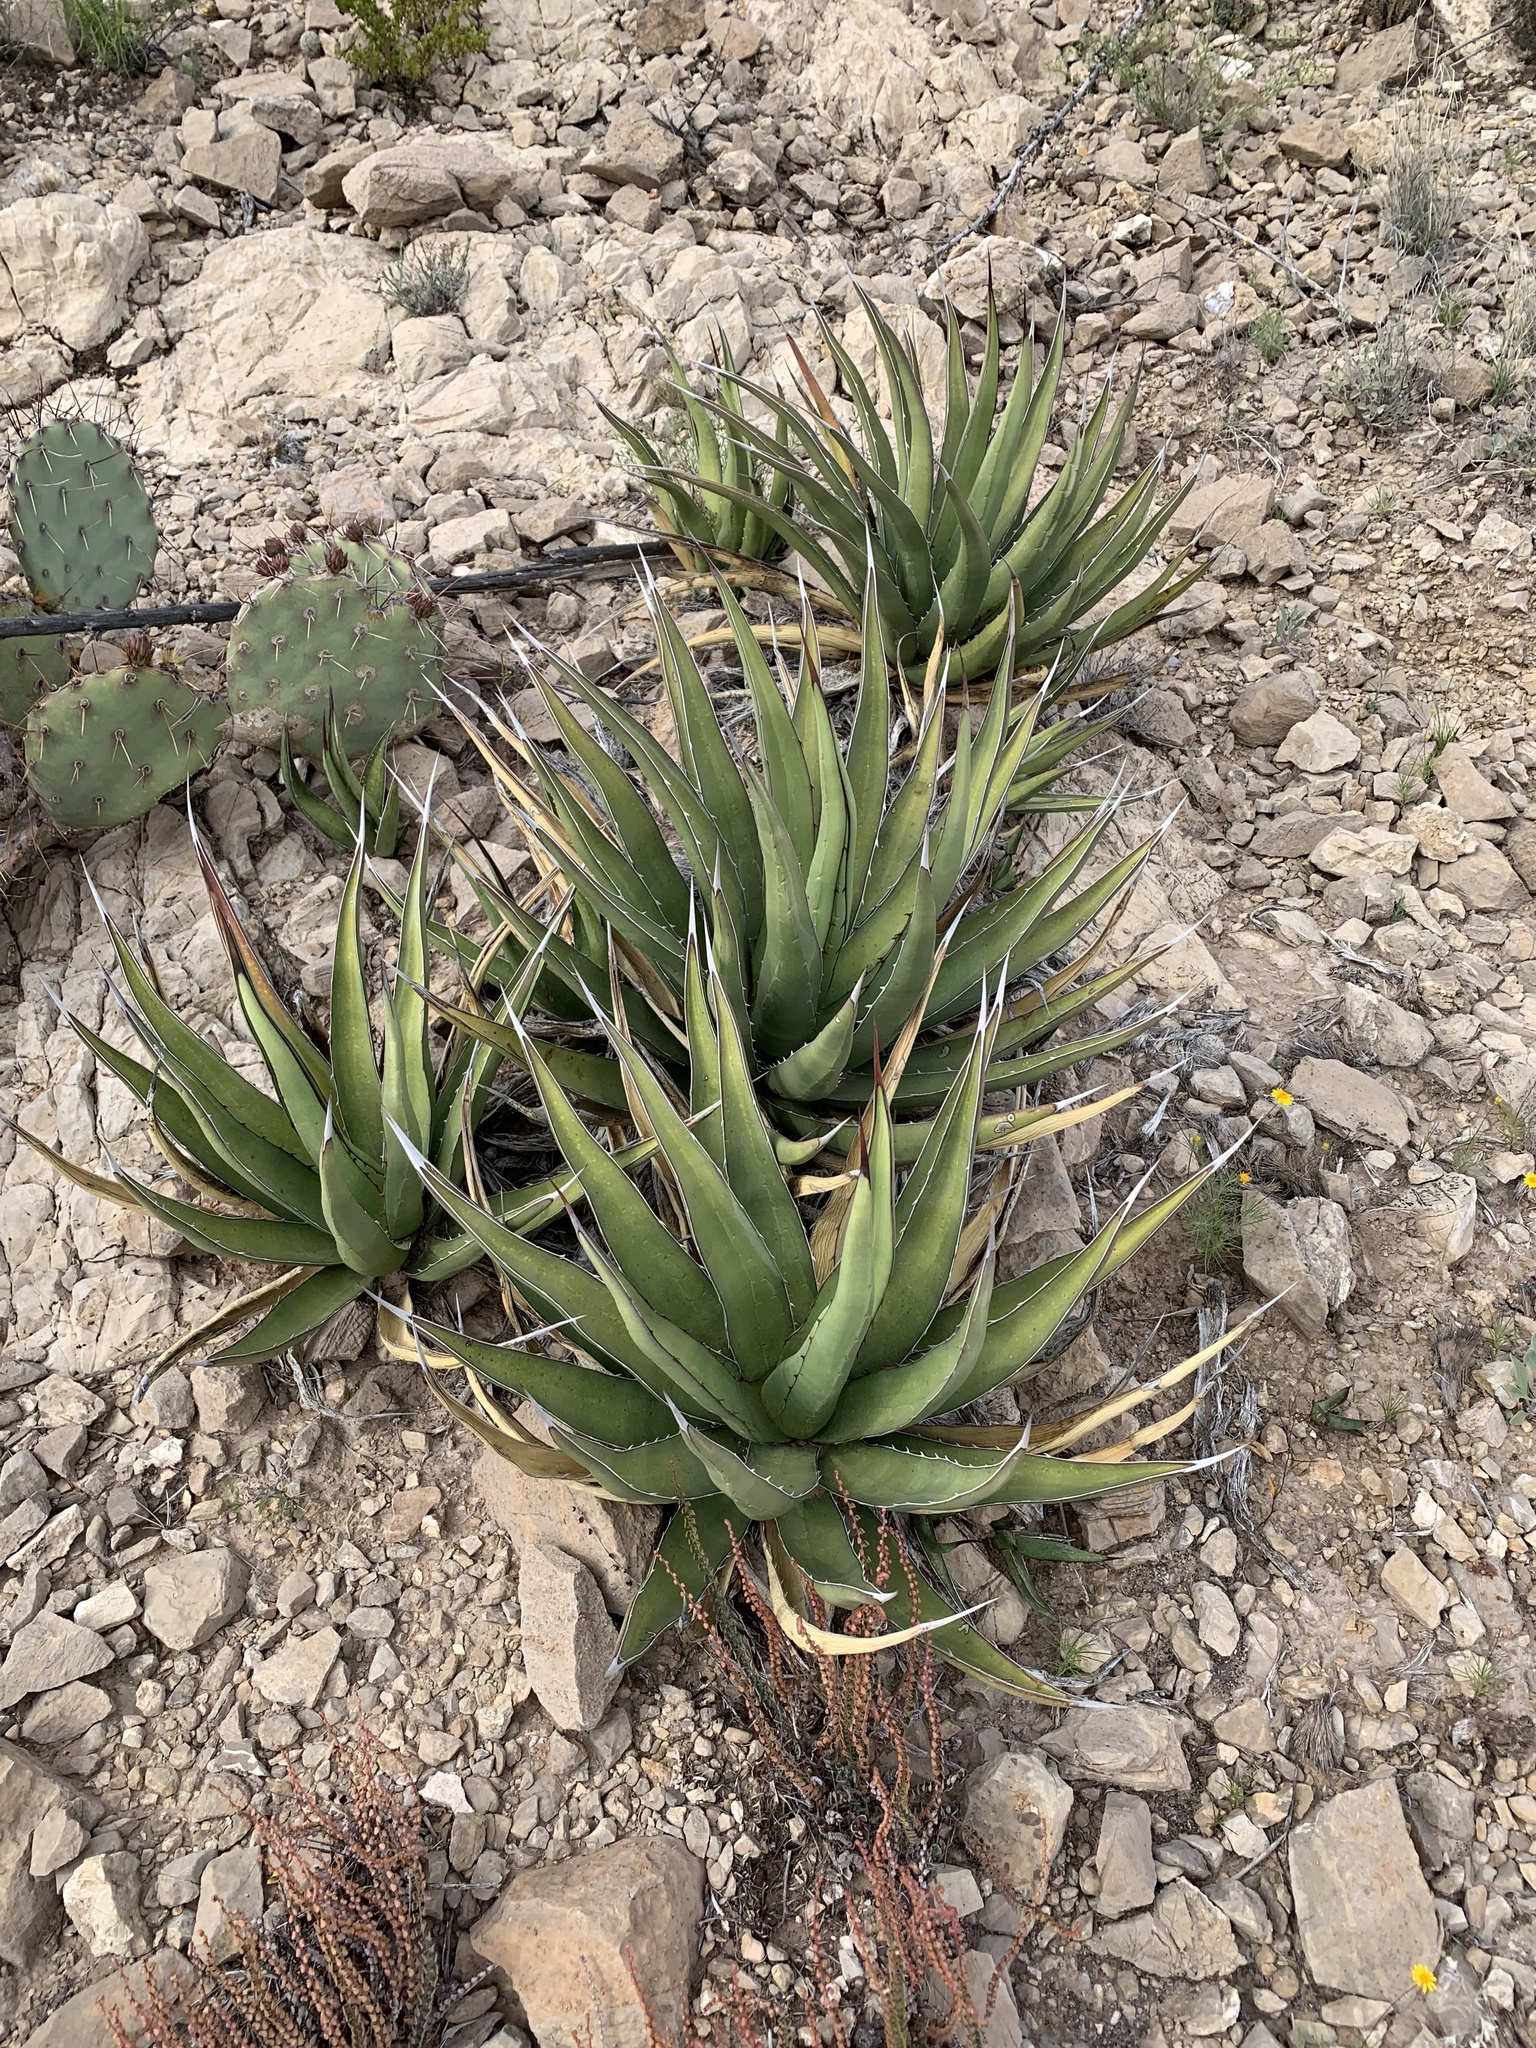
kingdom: Plantae
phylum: Tracheophyta
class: Liliopsida
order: Asparagales
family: Asparagaceae
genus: Agave
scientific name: Agave lechuguilla
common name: Lecheguilla agave
